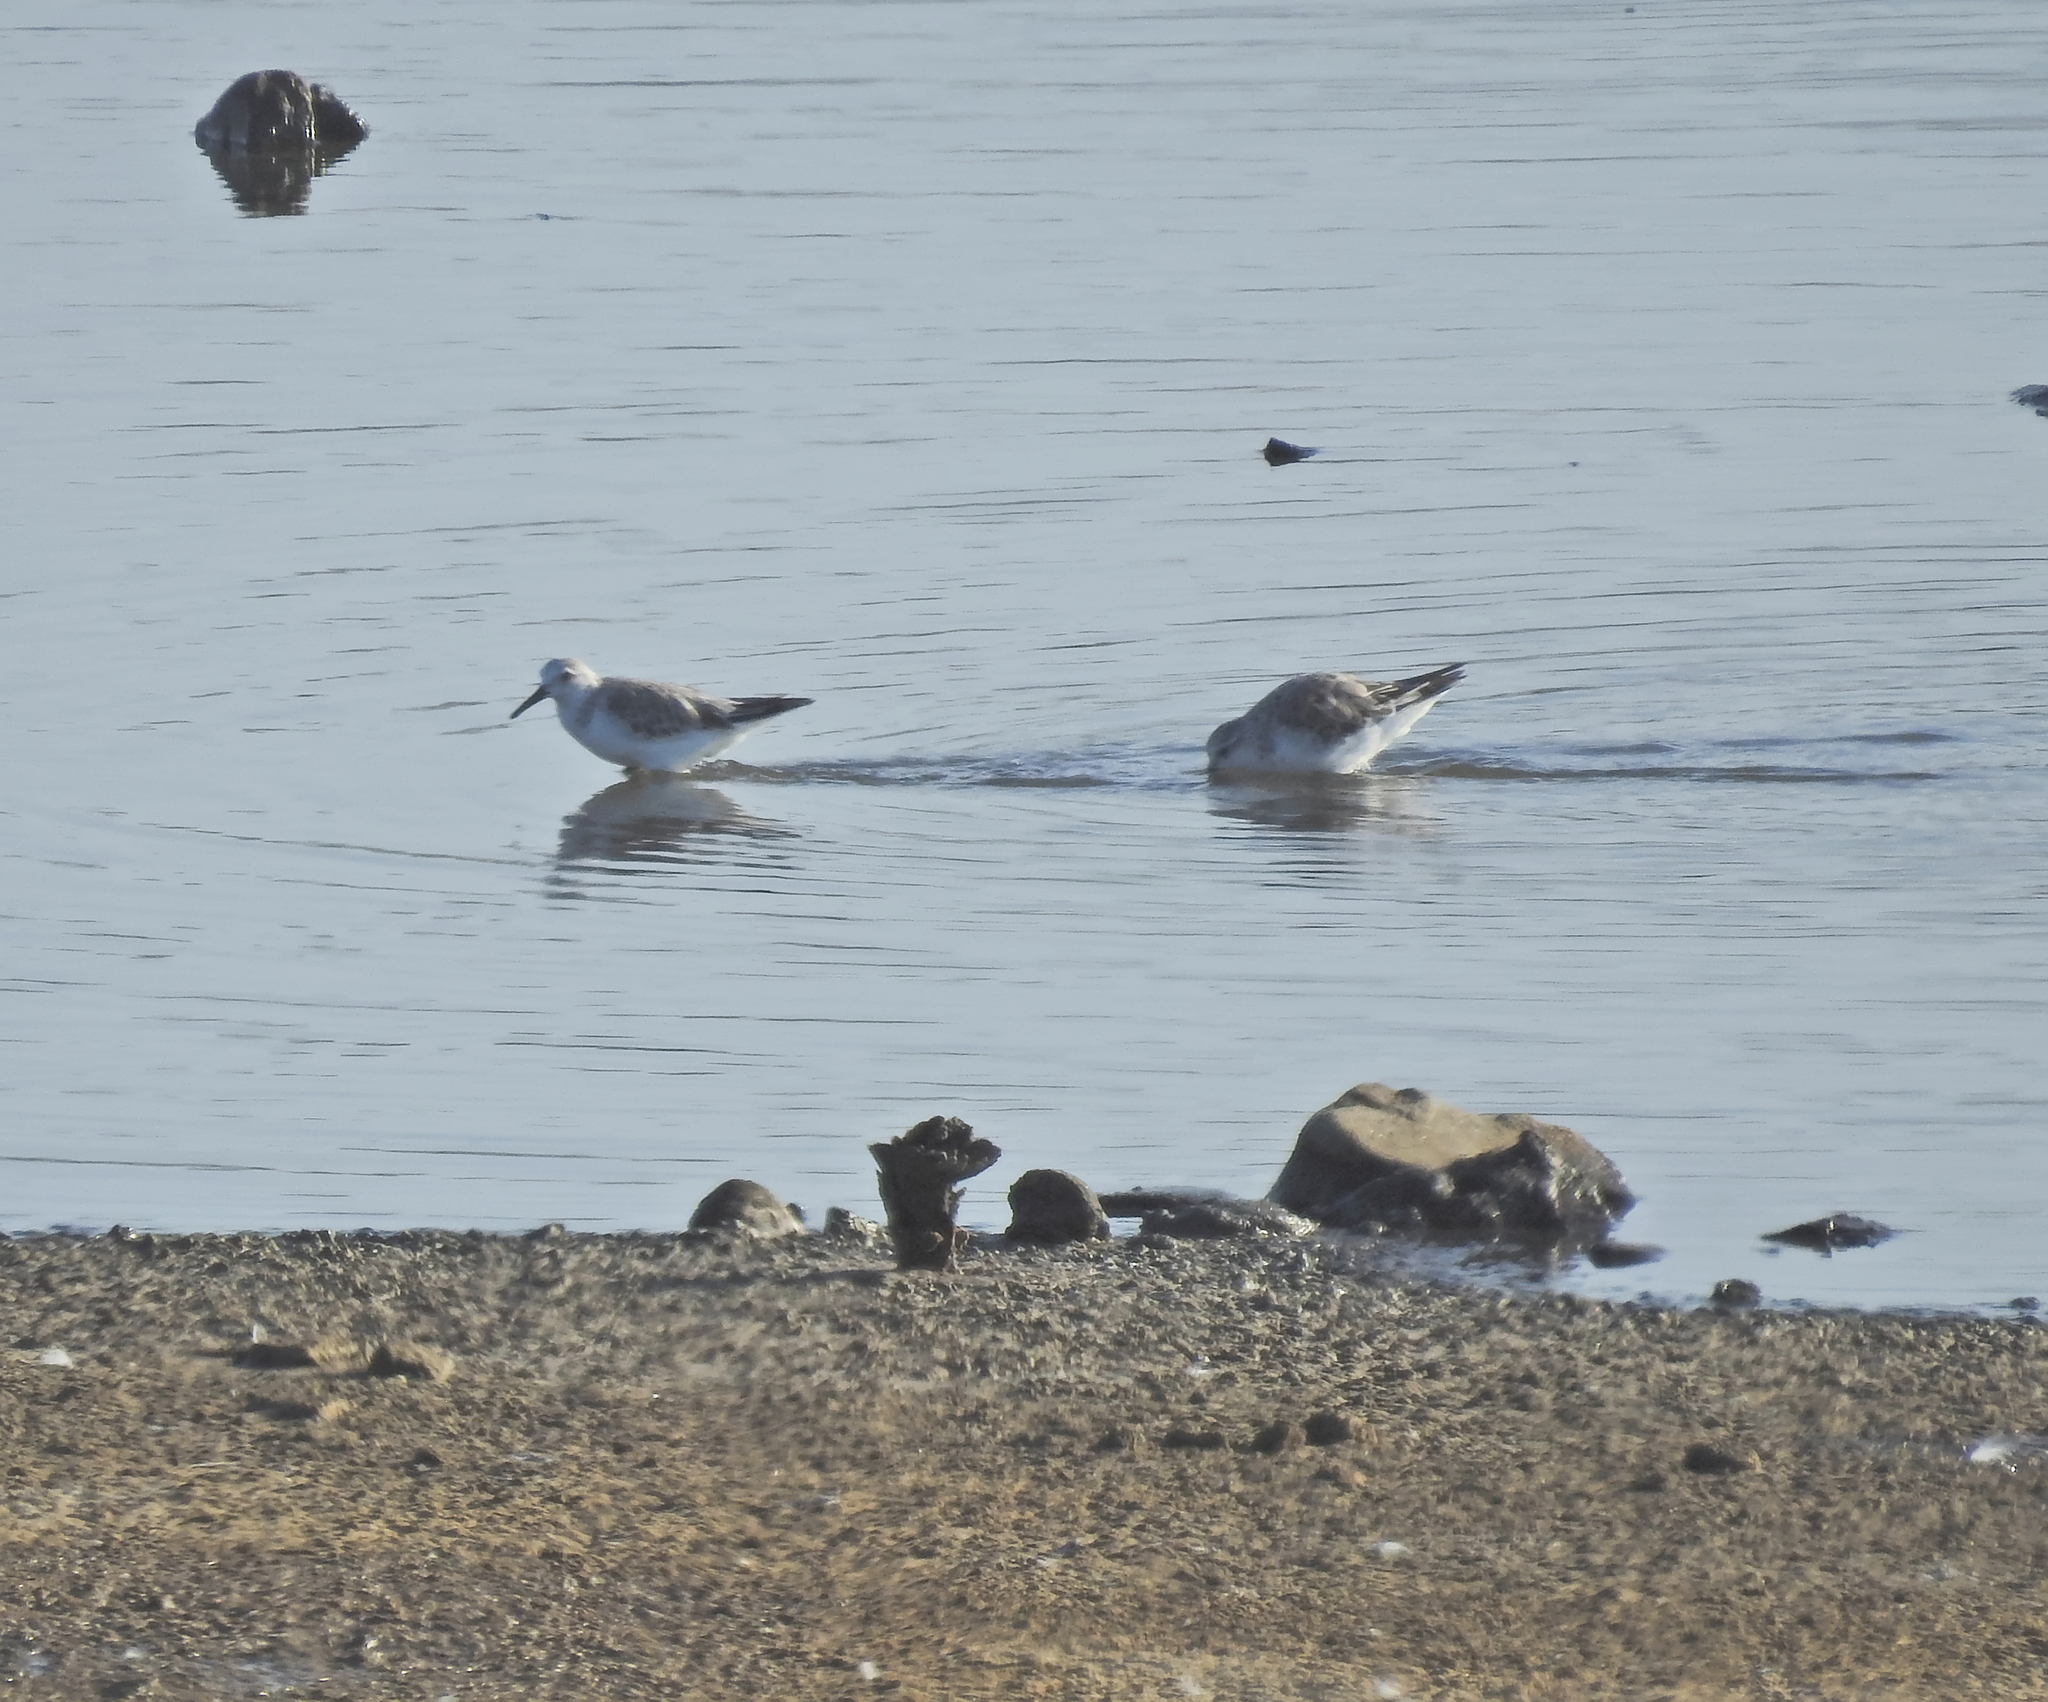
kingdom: Animalia
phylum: Chordata
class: Aves
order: Charadriiformes
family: Scolopacidae
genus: Calidris
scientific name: Calidris alba
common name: Sanderling
